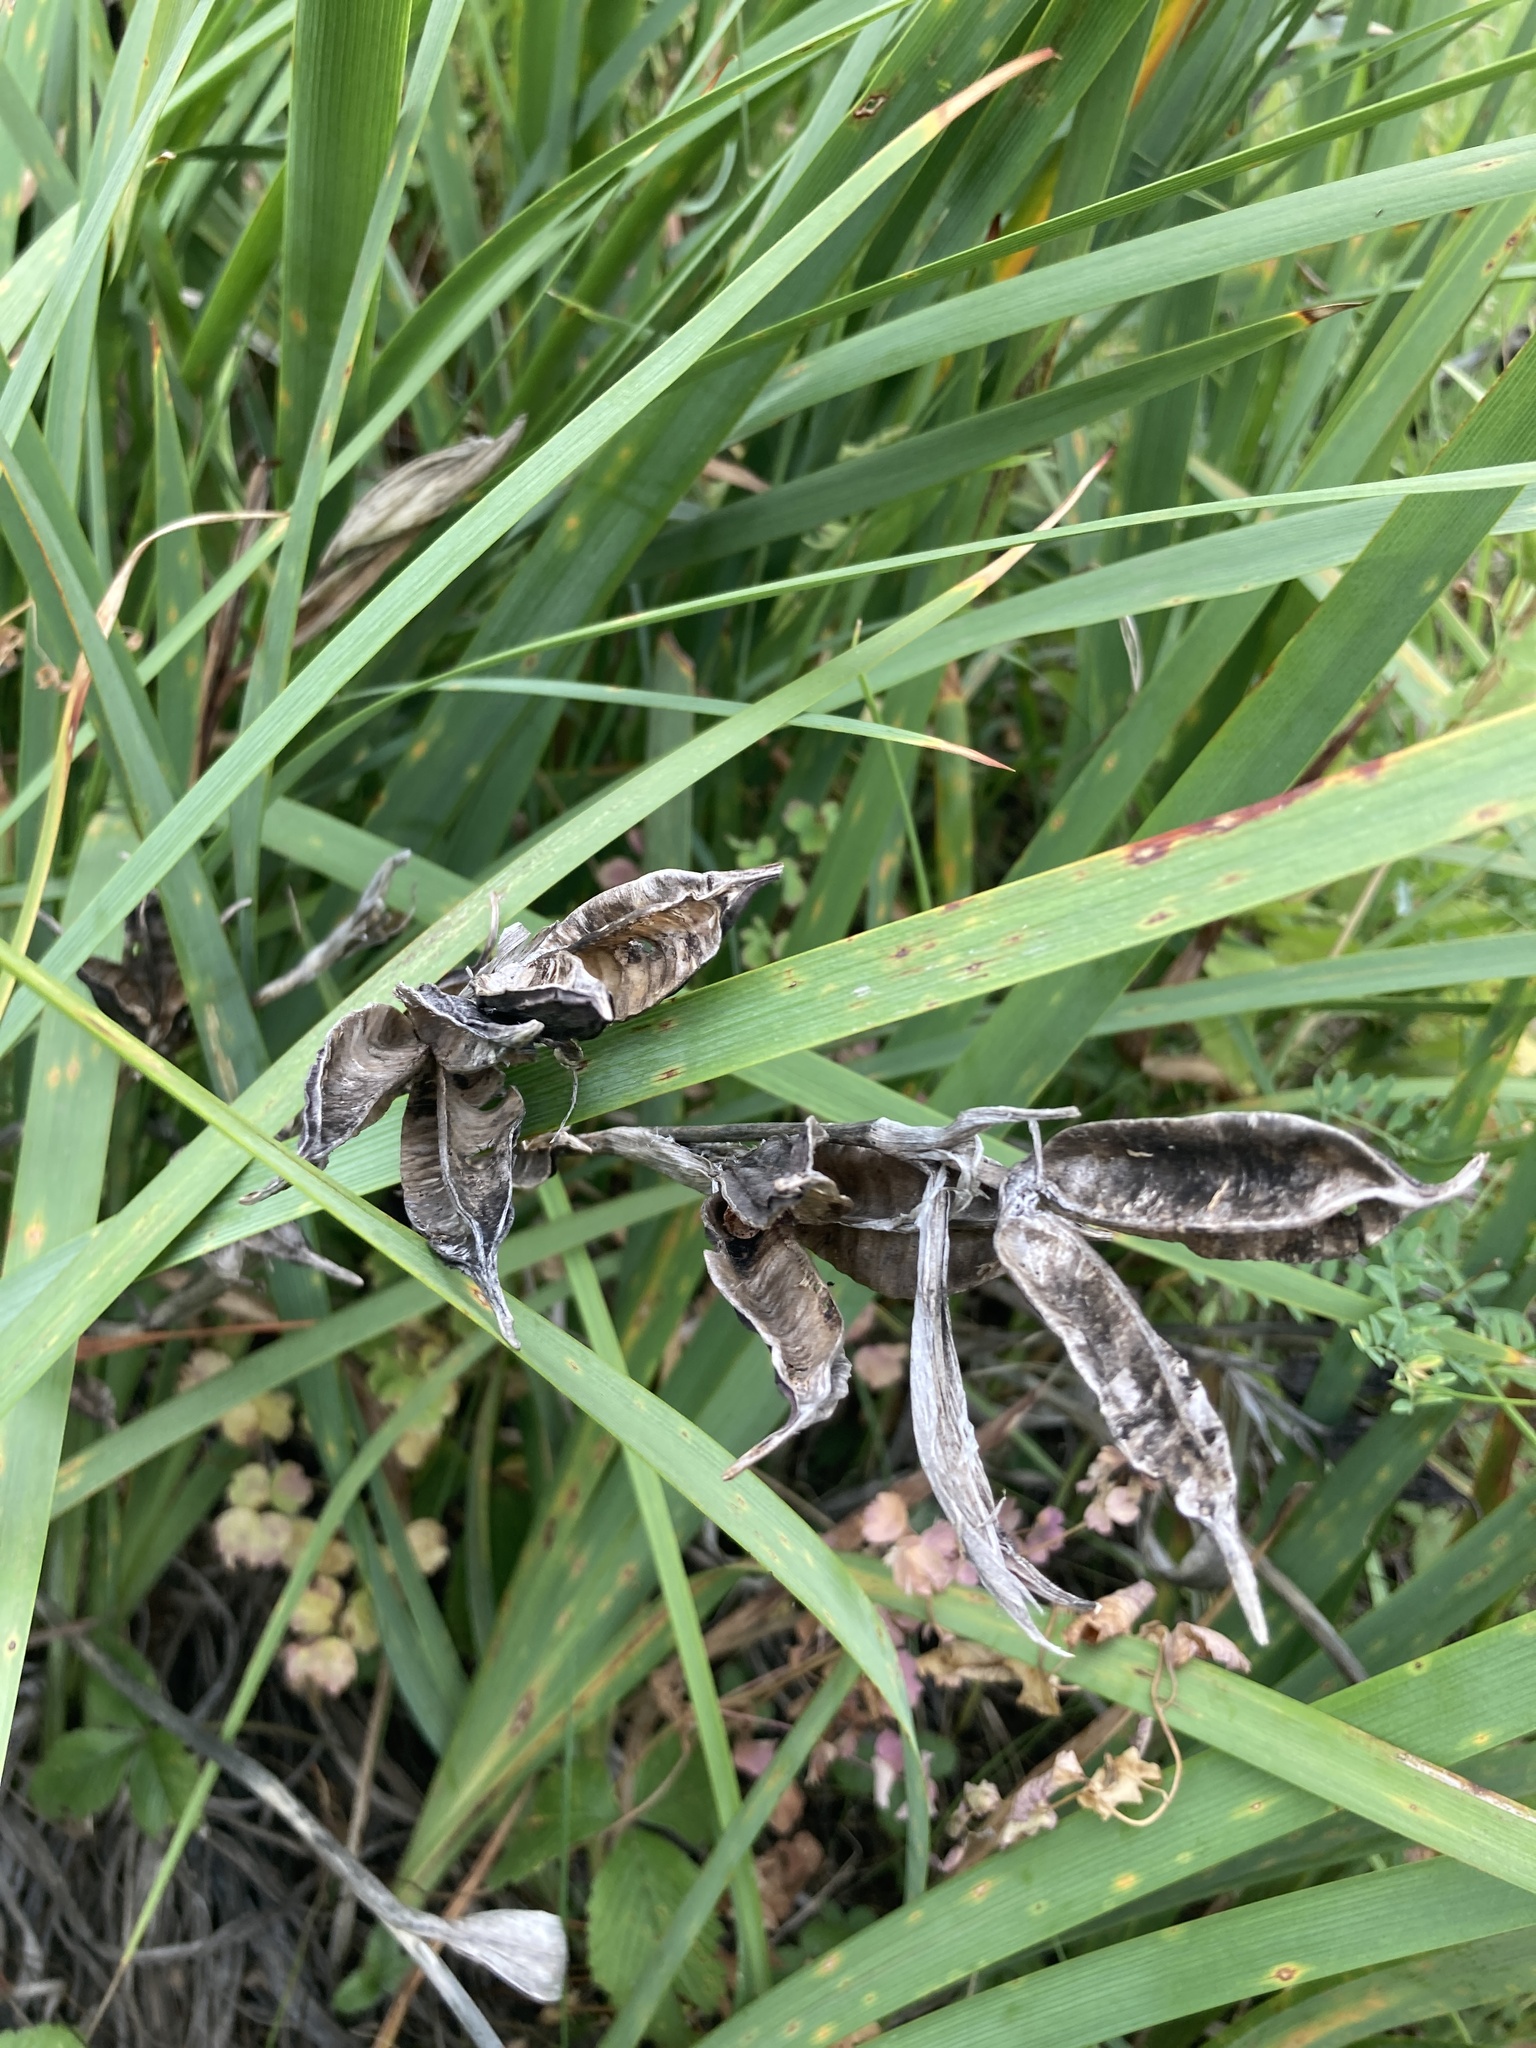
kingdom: Plantae
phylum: Tracheophyta
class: Liliopsida
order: Asparagales
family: Iridaceae
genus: Iris
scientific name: Iris halophila
